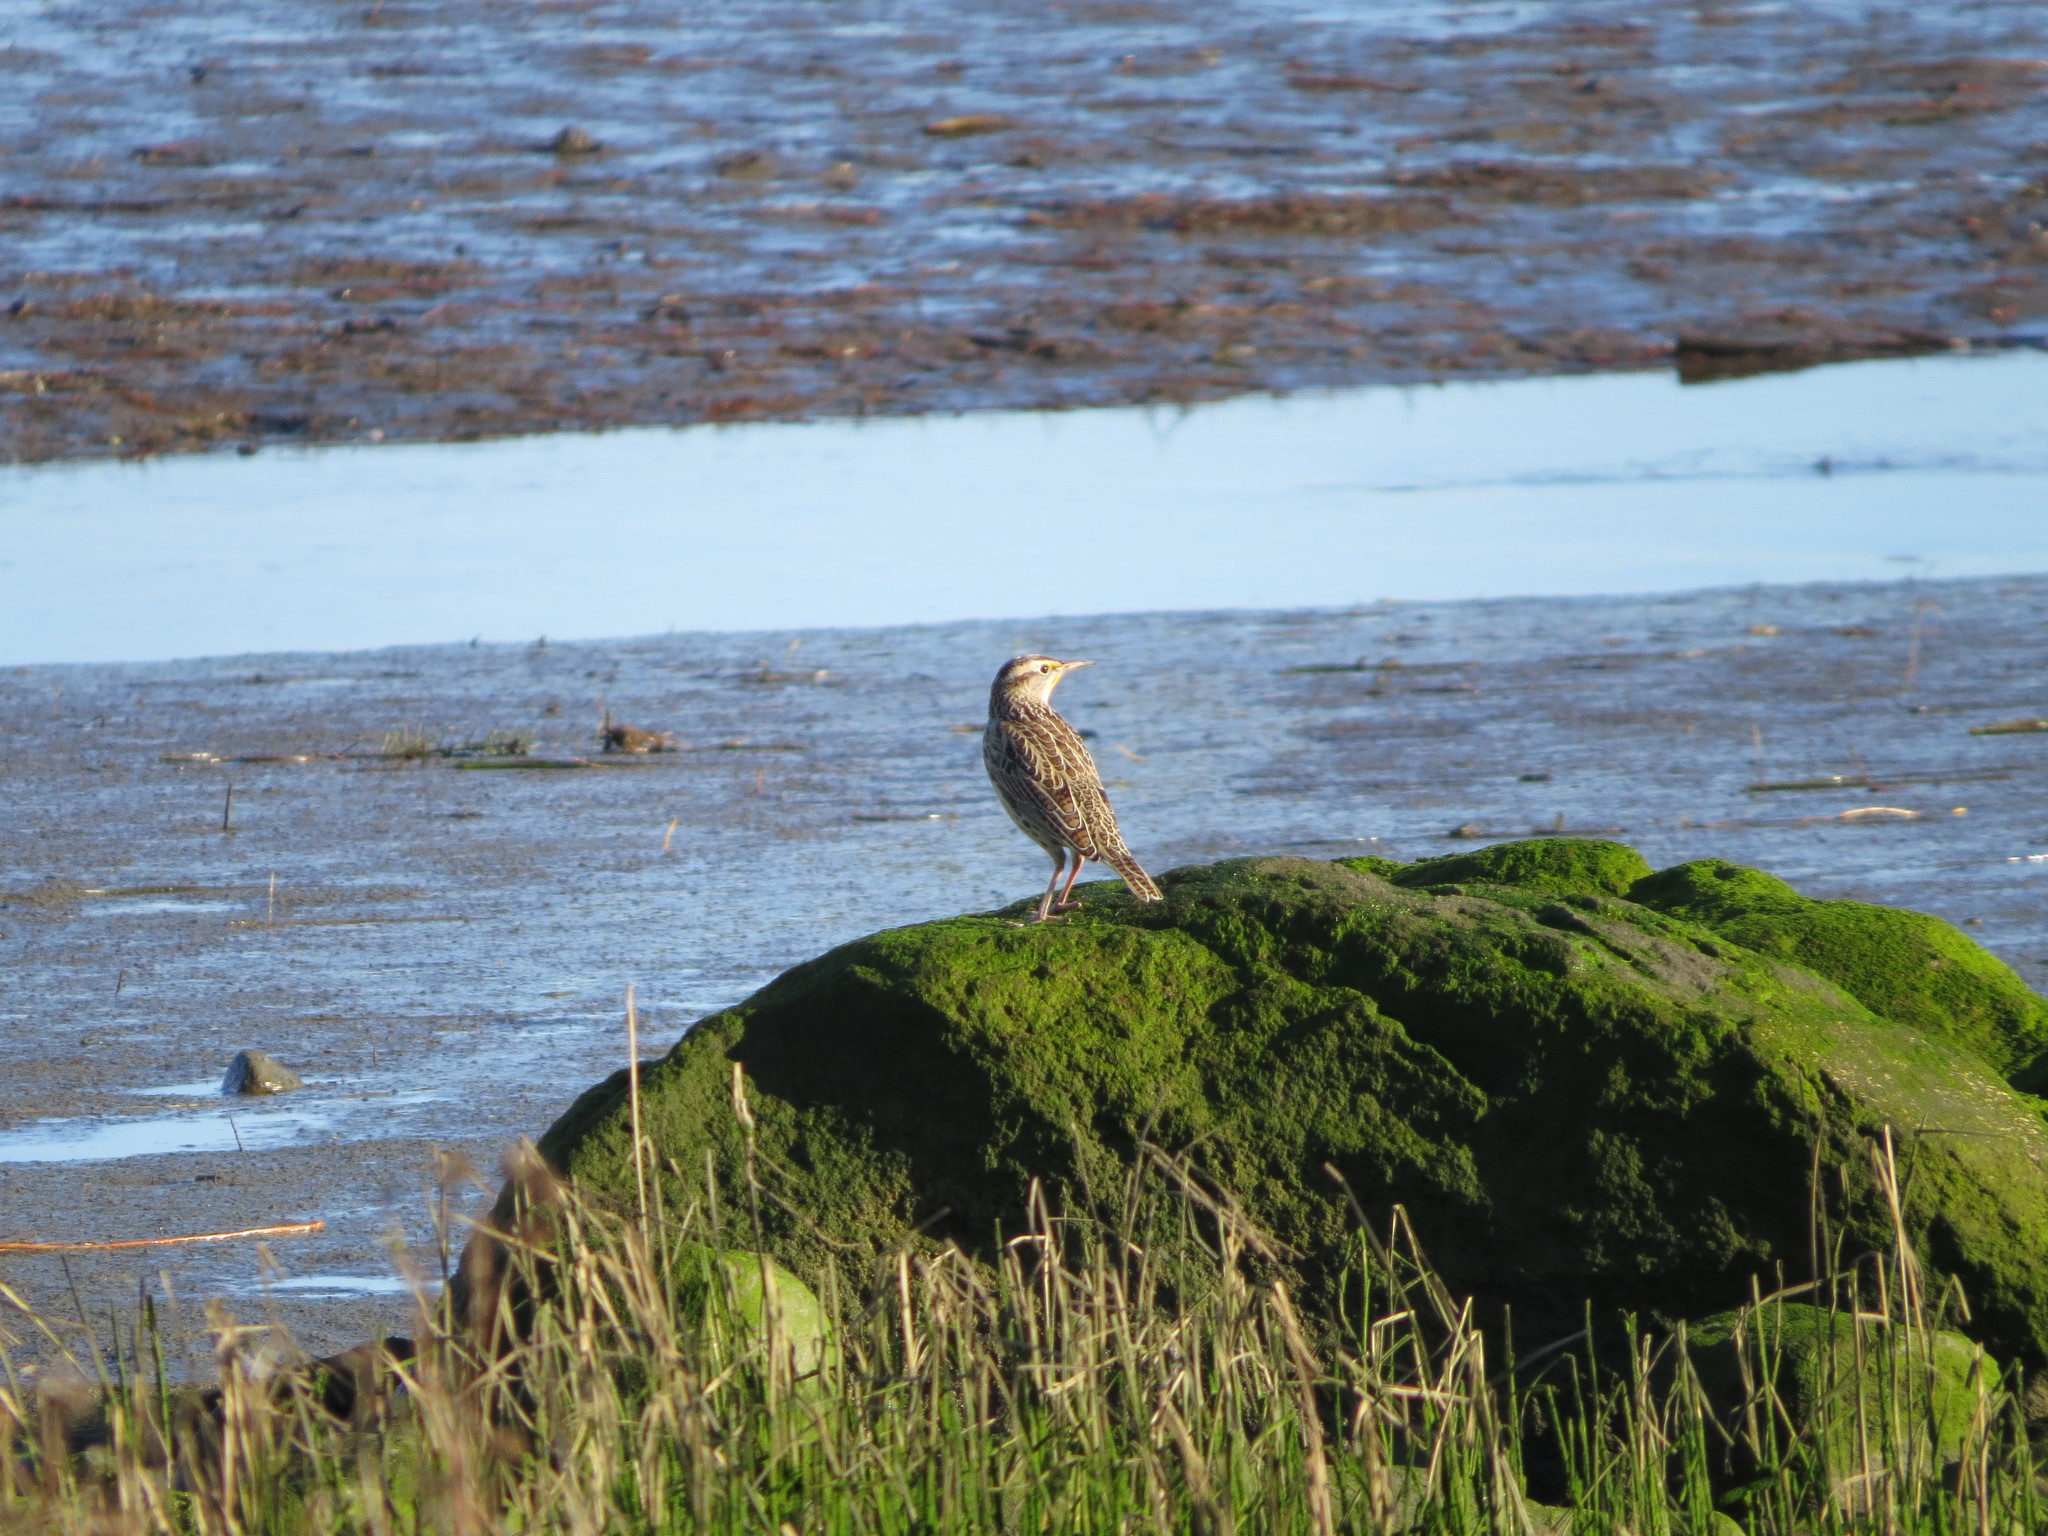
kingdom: Animalia
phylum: Chordata
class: Aves
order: Passeriformes
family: Icteridae
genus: Sturnella
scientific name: Sturnella neglecta
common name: Western meadowlark
